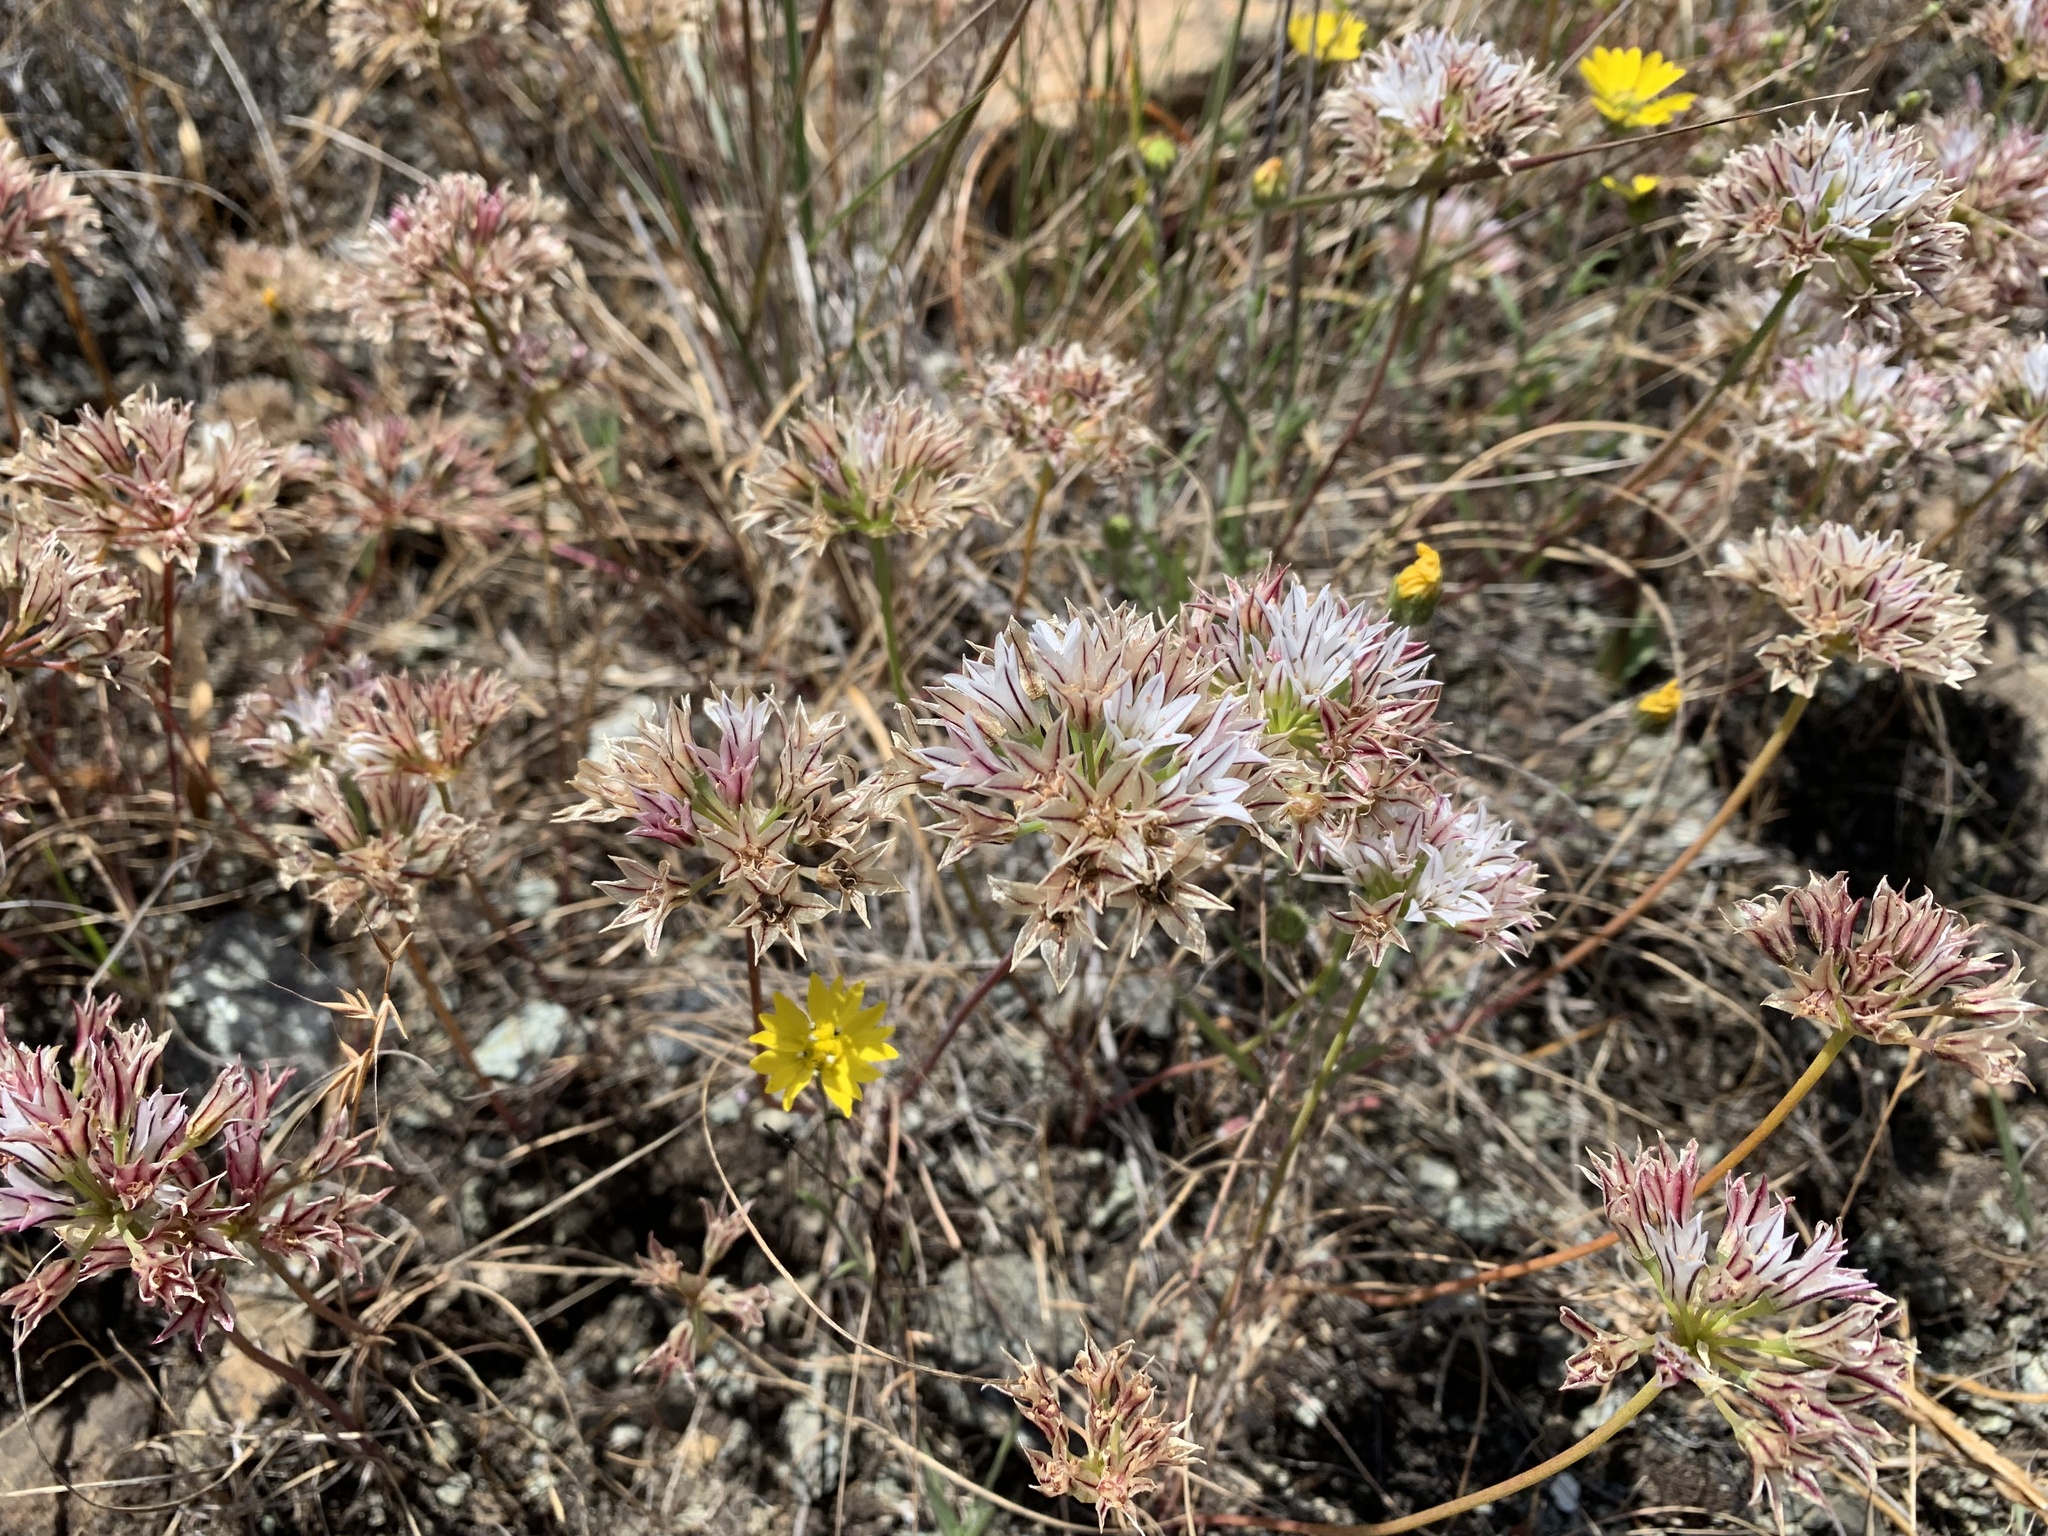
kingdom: Plantae
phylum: Tracheophyta
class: Liliopsida
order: Asparagales
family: Amaryllidaceae
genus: Allium
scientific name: Allium lacunosum
